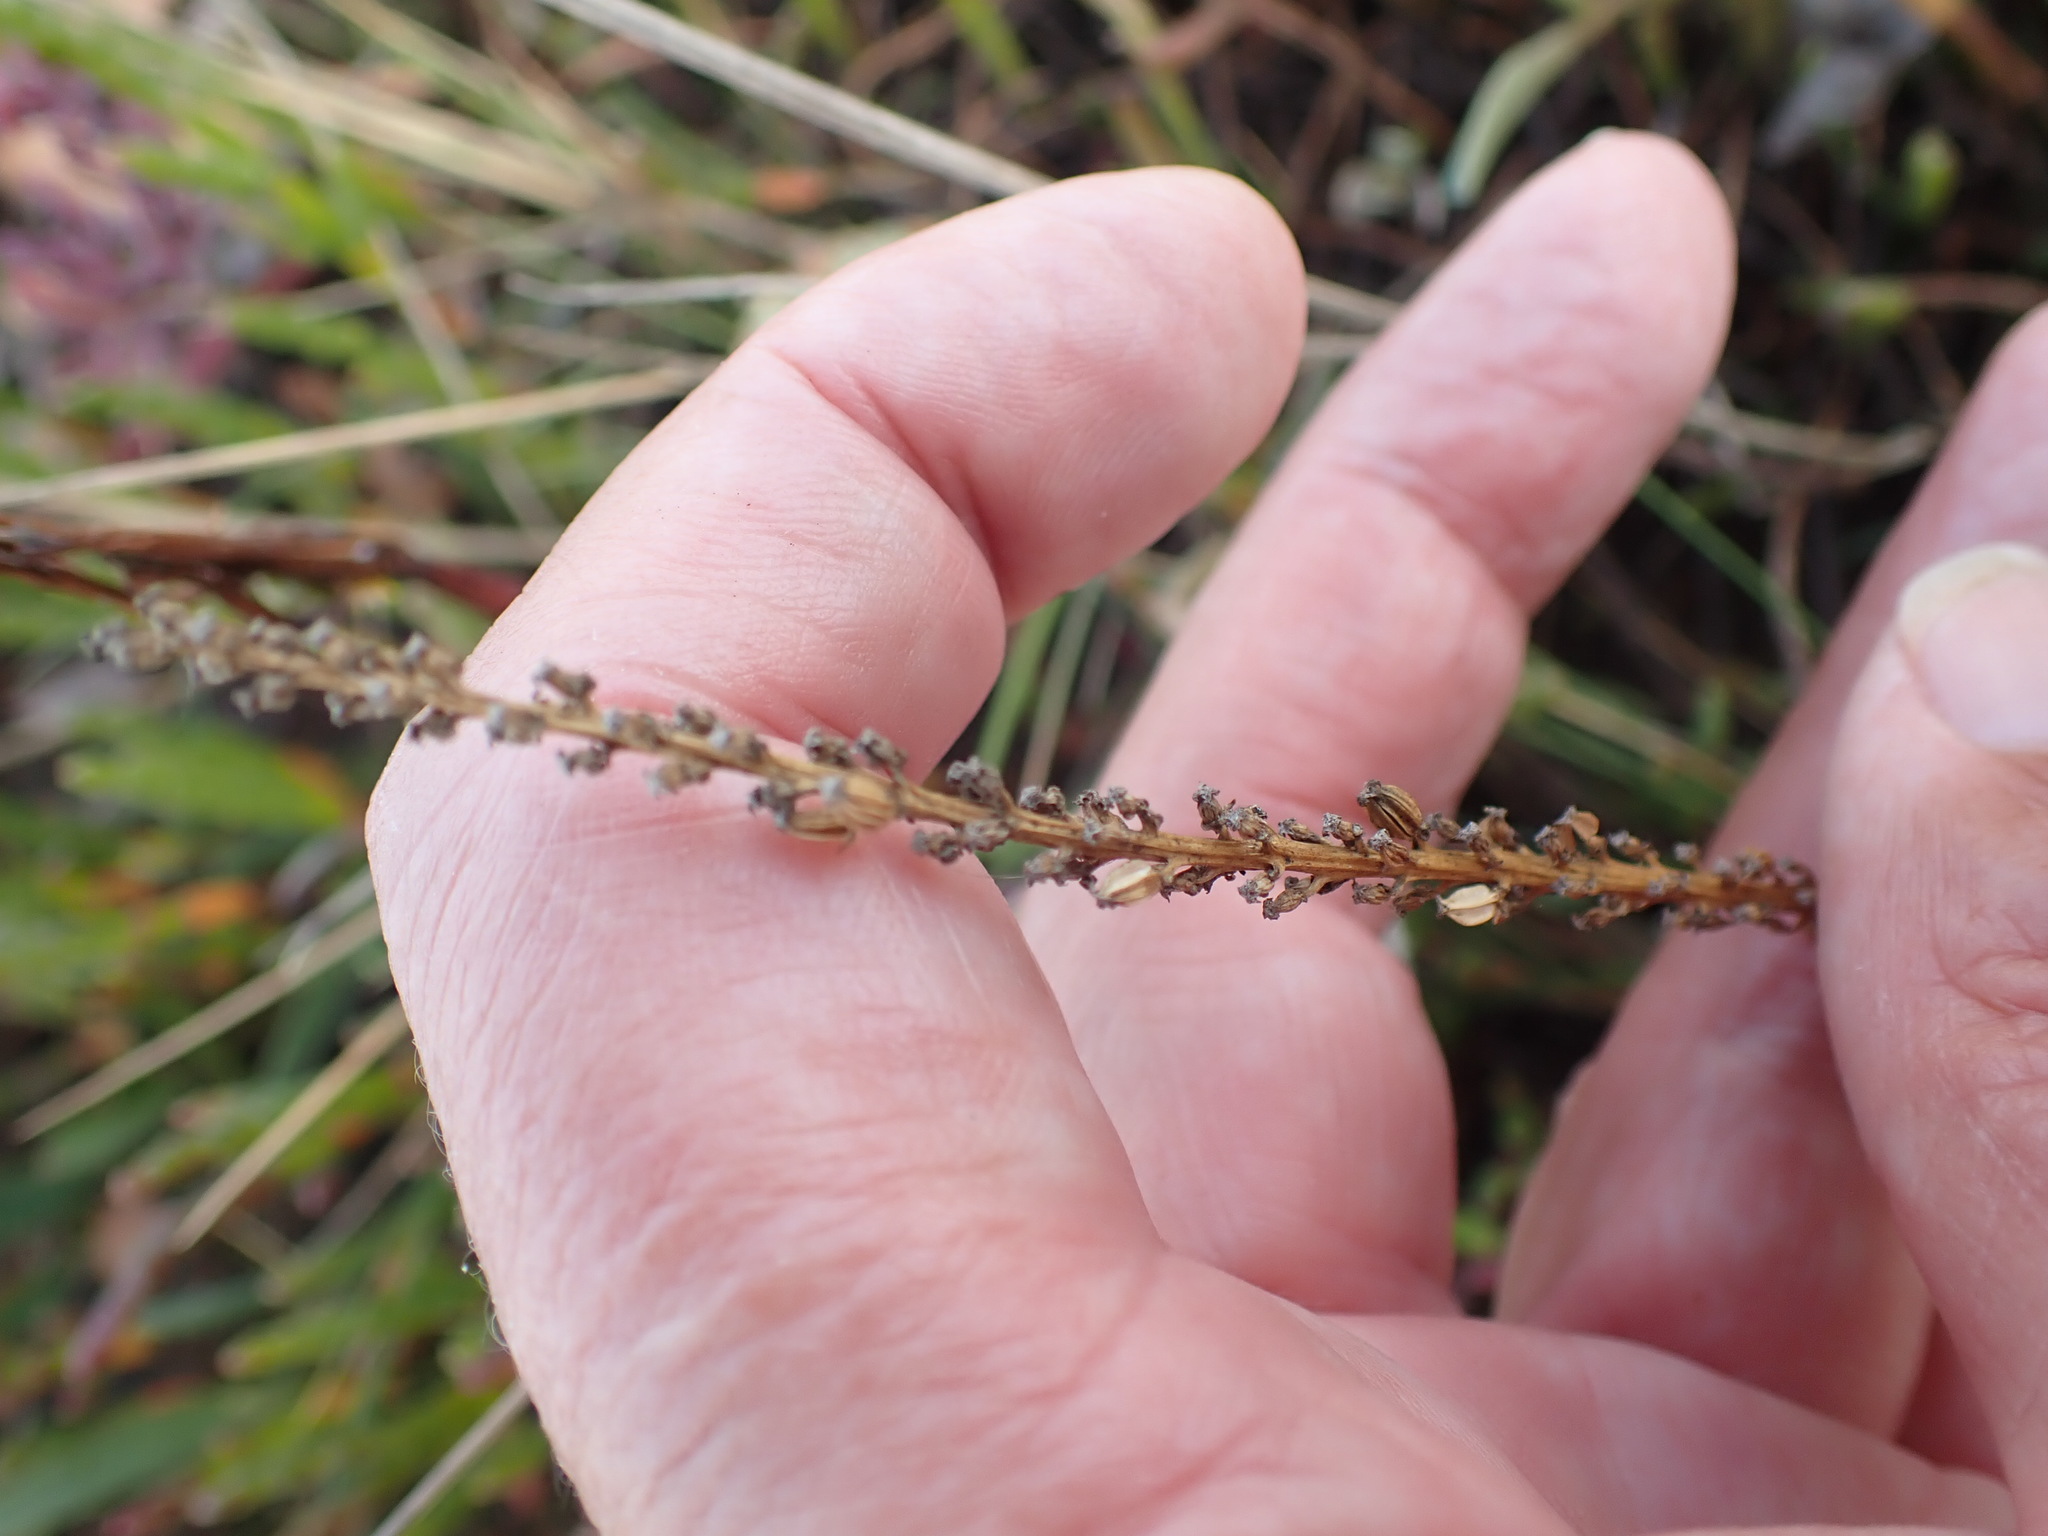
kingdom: Plantae
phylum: Tracheophyta
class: Liliopsida
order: Alismatales
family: Juncaginaceae
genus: Triglochin
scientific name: Triglochin maritima
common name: Sea arrowgrass
